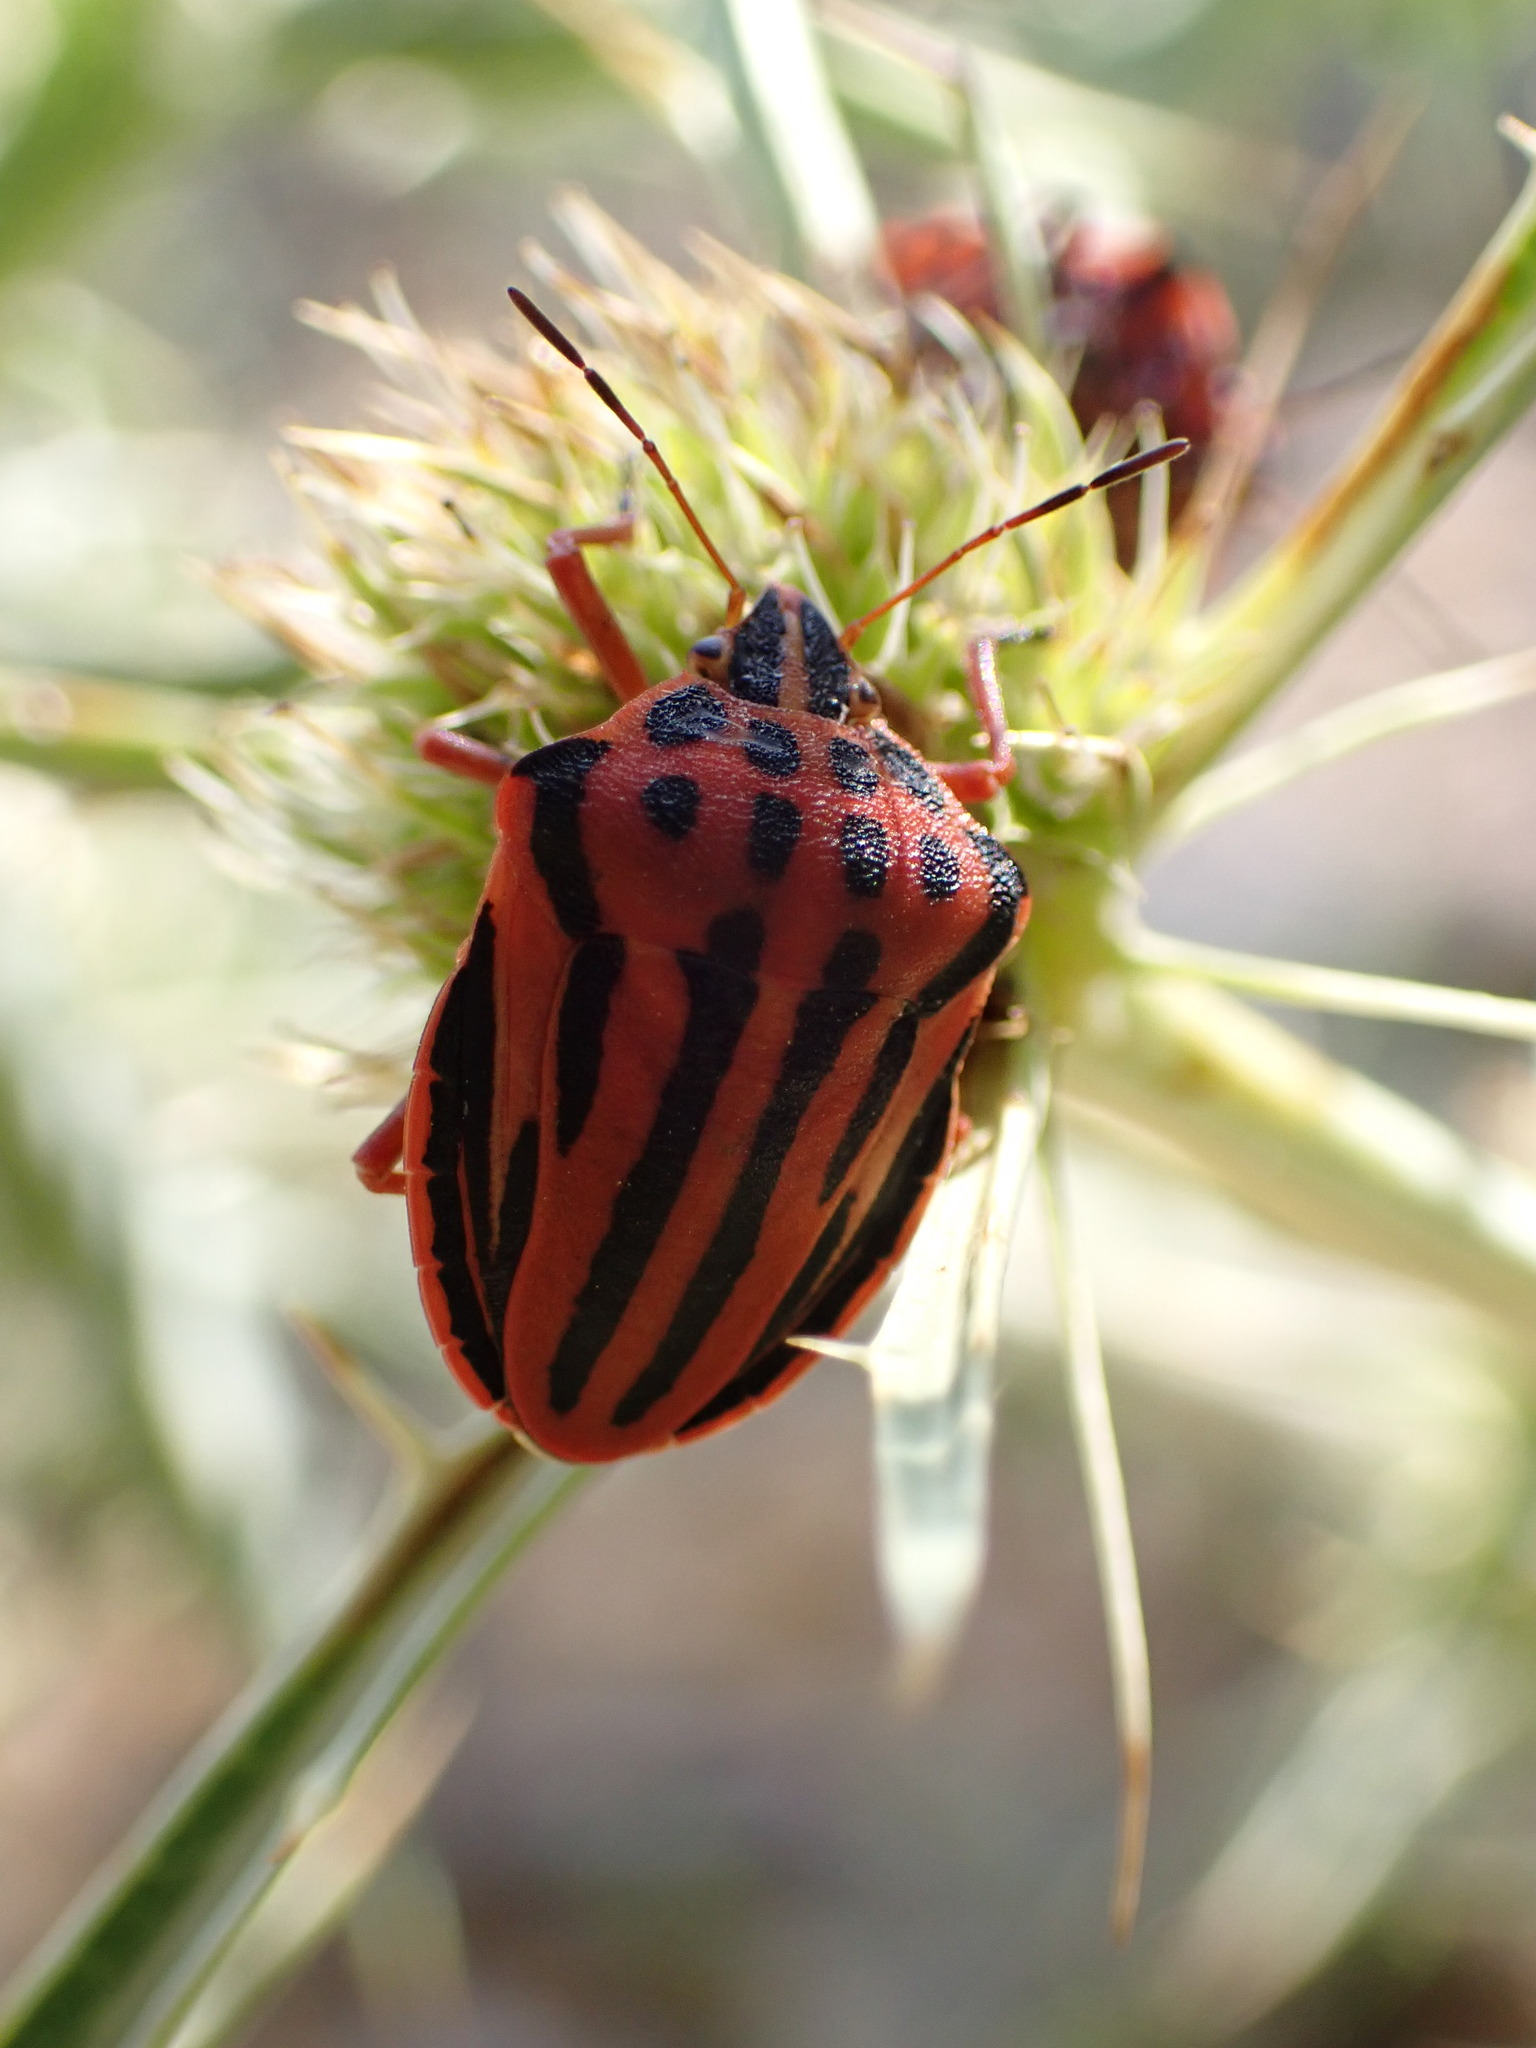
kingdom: Animalia
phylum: Arthropoda
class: Insecta
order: Hemiptera
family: Pentatomidae
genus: Graphosoma
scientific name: Graphosoma semipunctatum
